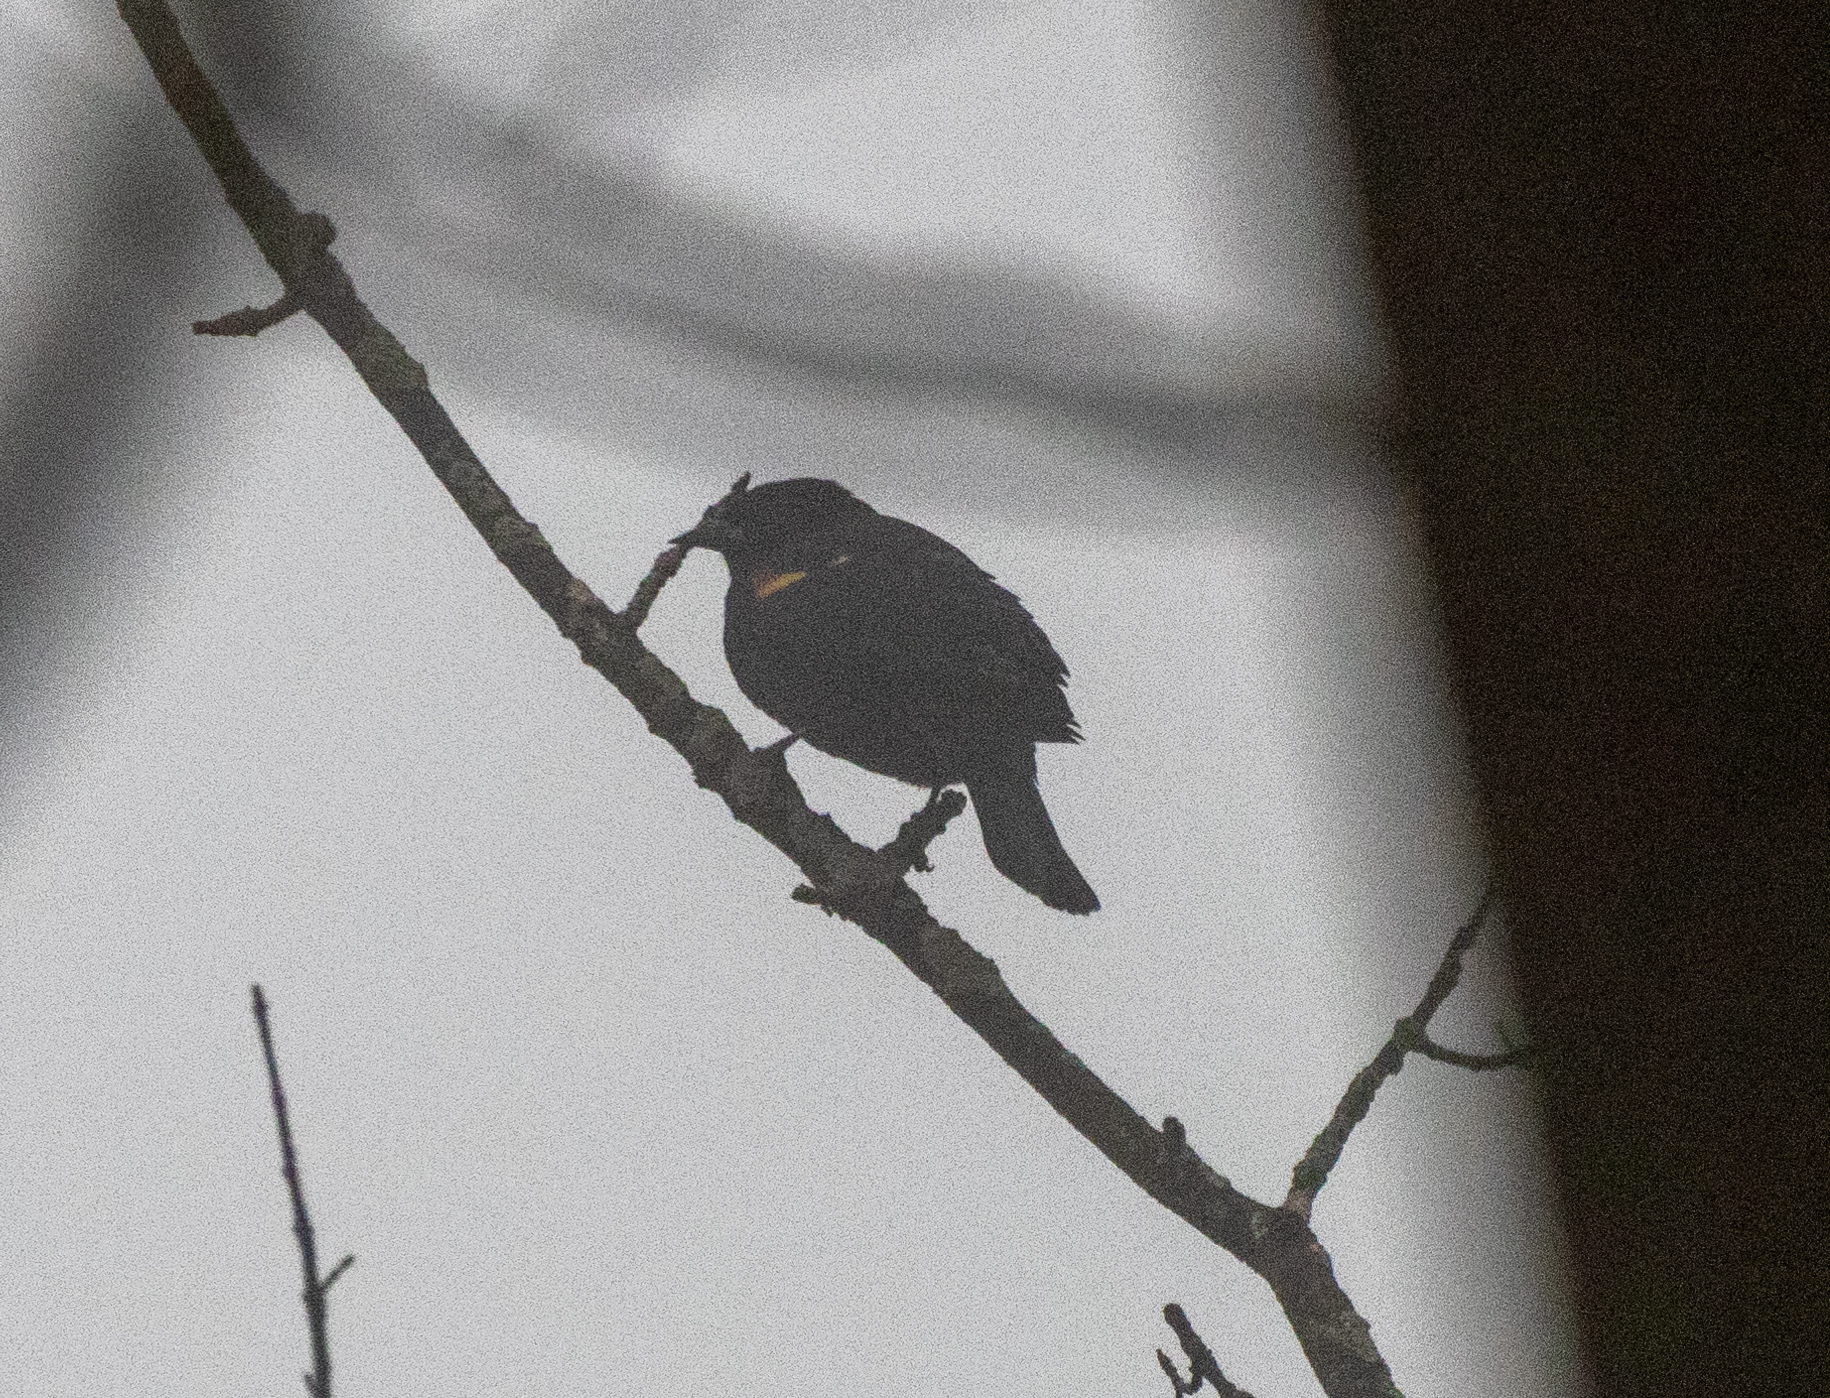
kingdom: Animalia
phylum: Chordata
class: Aves
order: Passeriformes
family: Icteridae
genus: Agelaius
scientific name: Agelaius phoeniceus
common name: Red-winged blackbird
